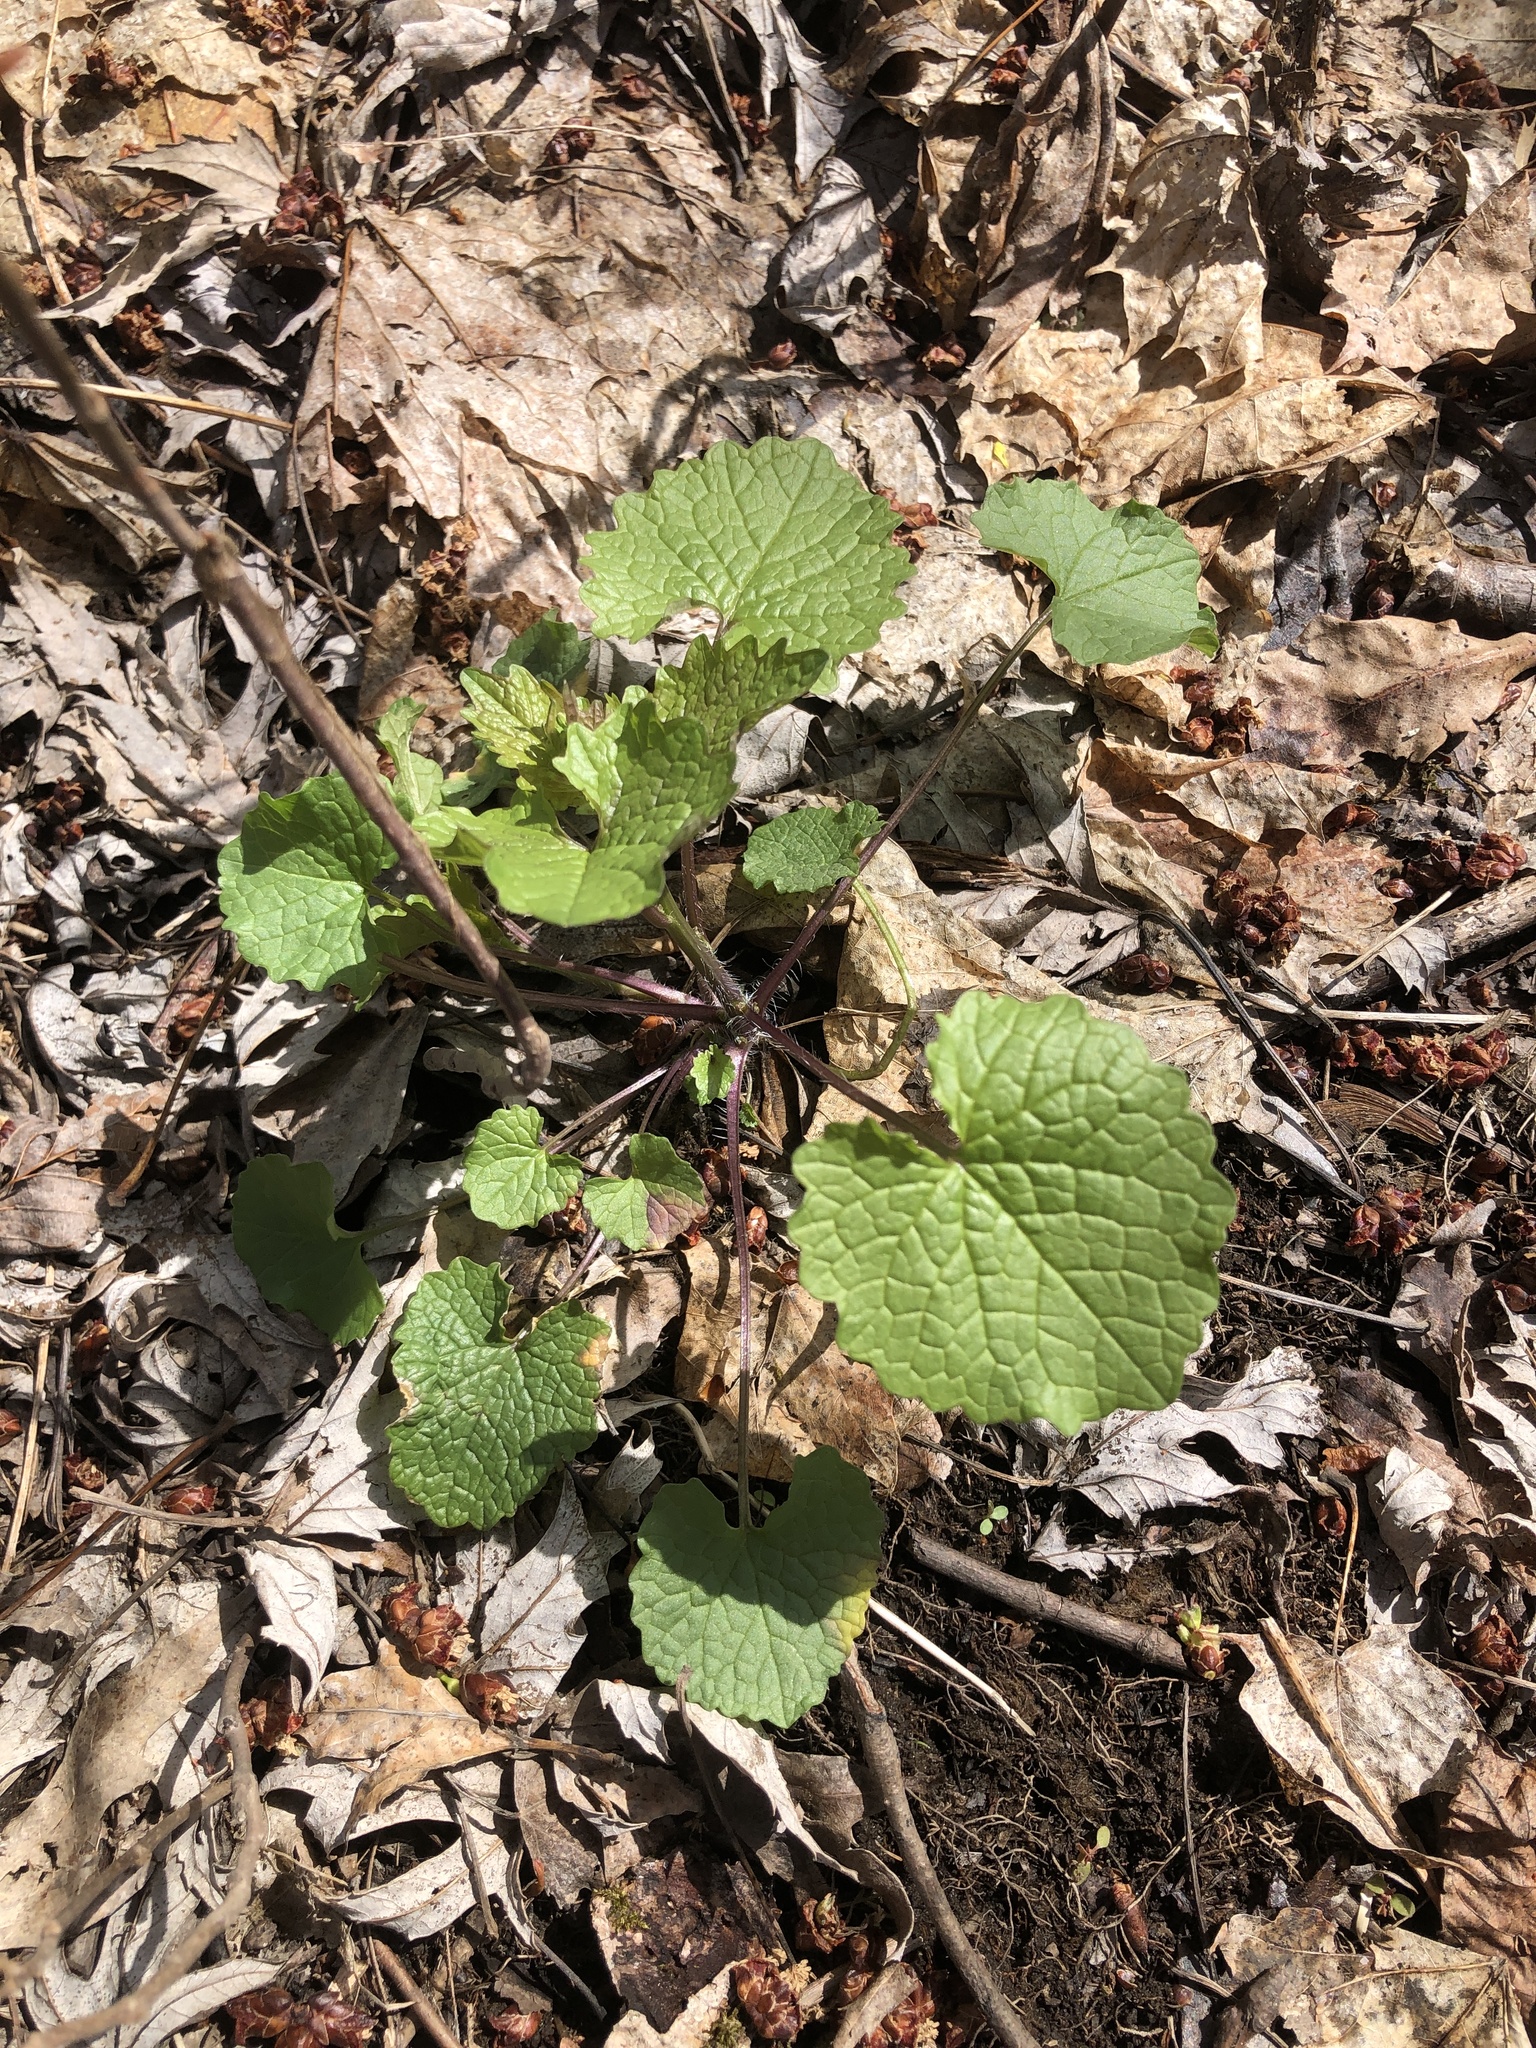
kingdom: Plantae
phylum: Tracheophyta
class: Magnoliopsida
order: Brassicales
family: Brassicaceae
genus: Alliaria
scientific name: Alliaria petiolata
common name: Garlic mustard
